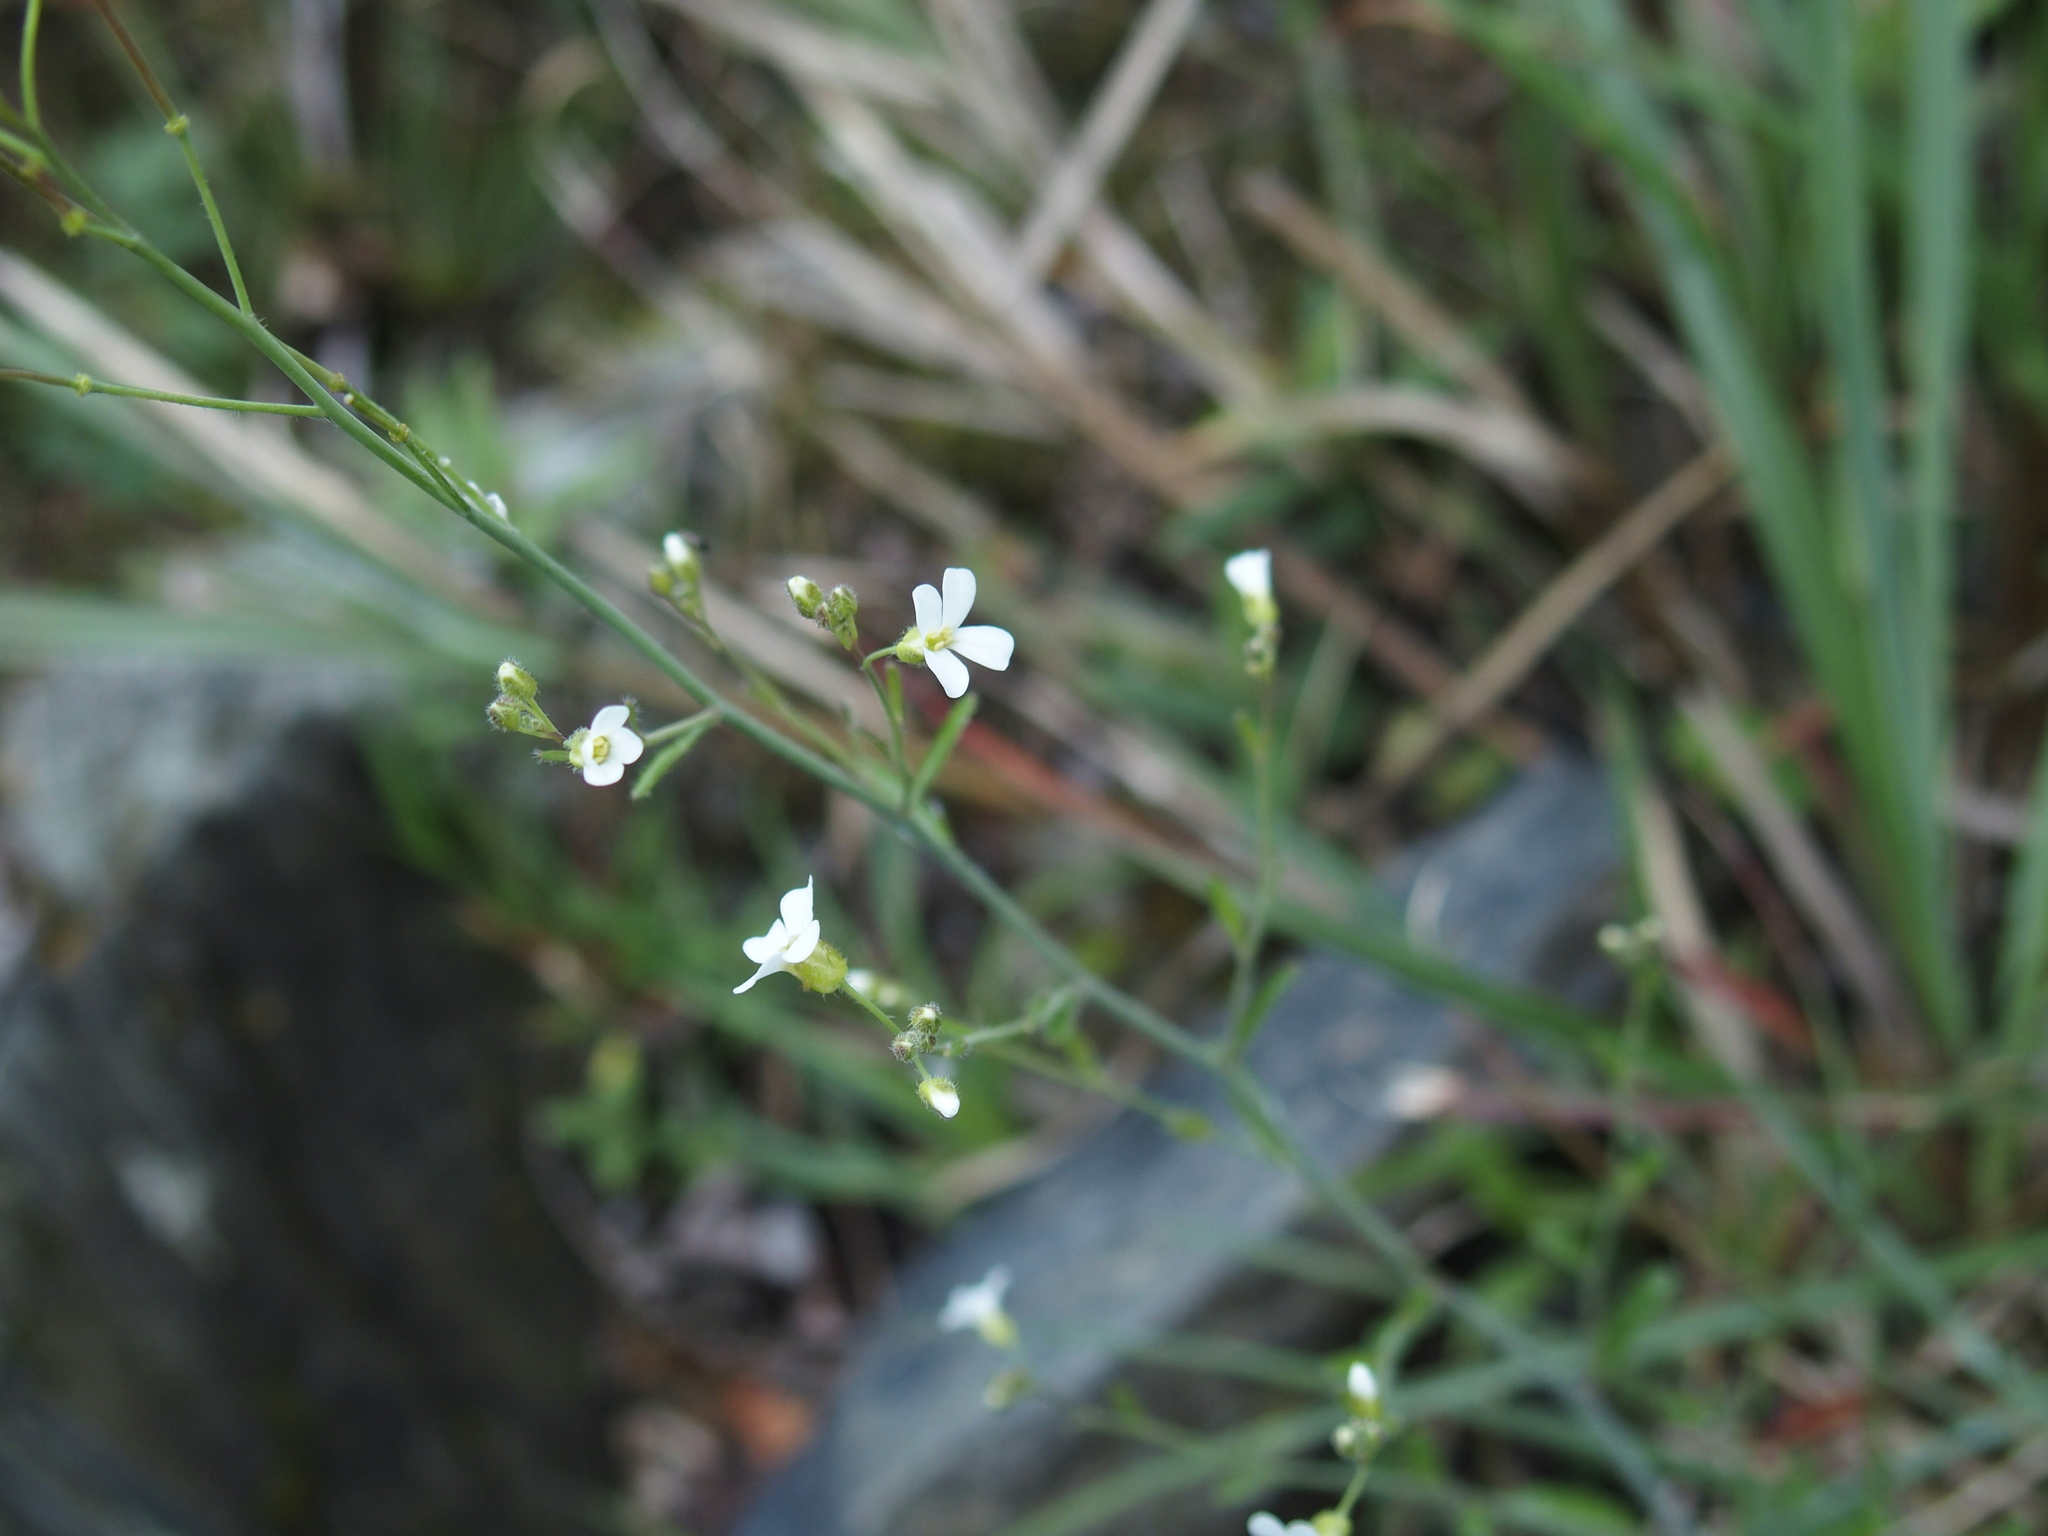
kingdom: Plantae
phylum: Tracheophyta
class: Magnoliopsida
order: Brassicales
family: Brassicaceae
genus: Arabidopsis
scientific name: Arabidopsis lyrata
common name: Lyrate rockcress
